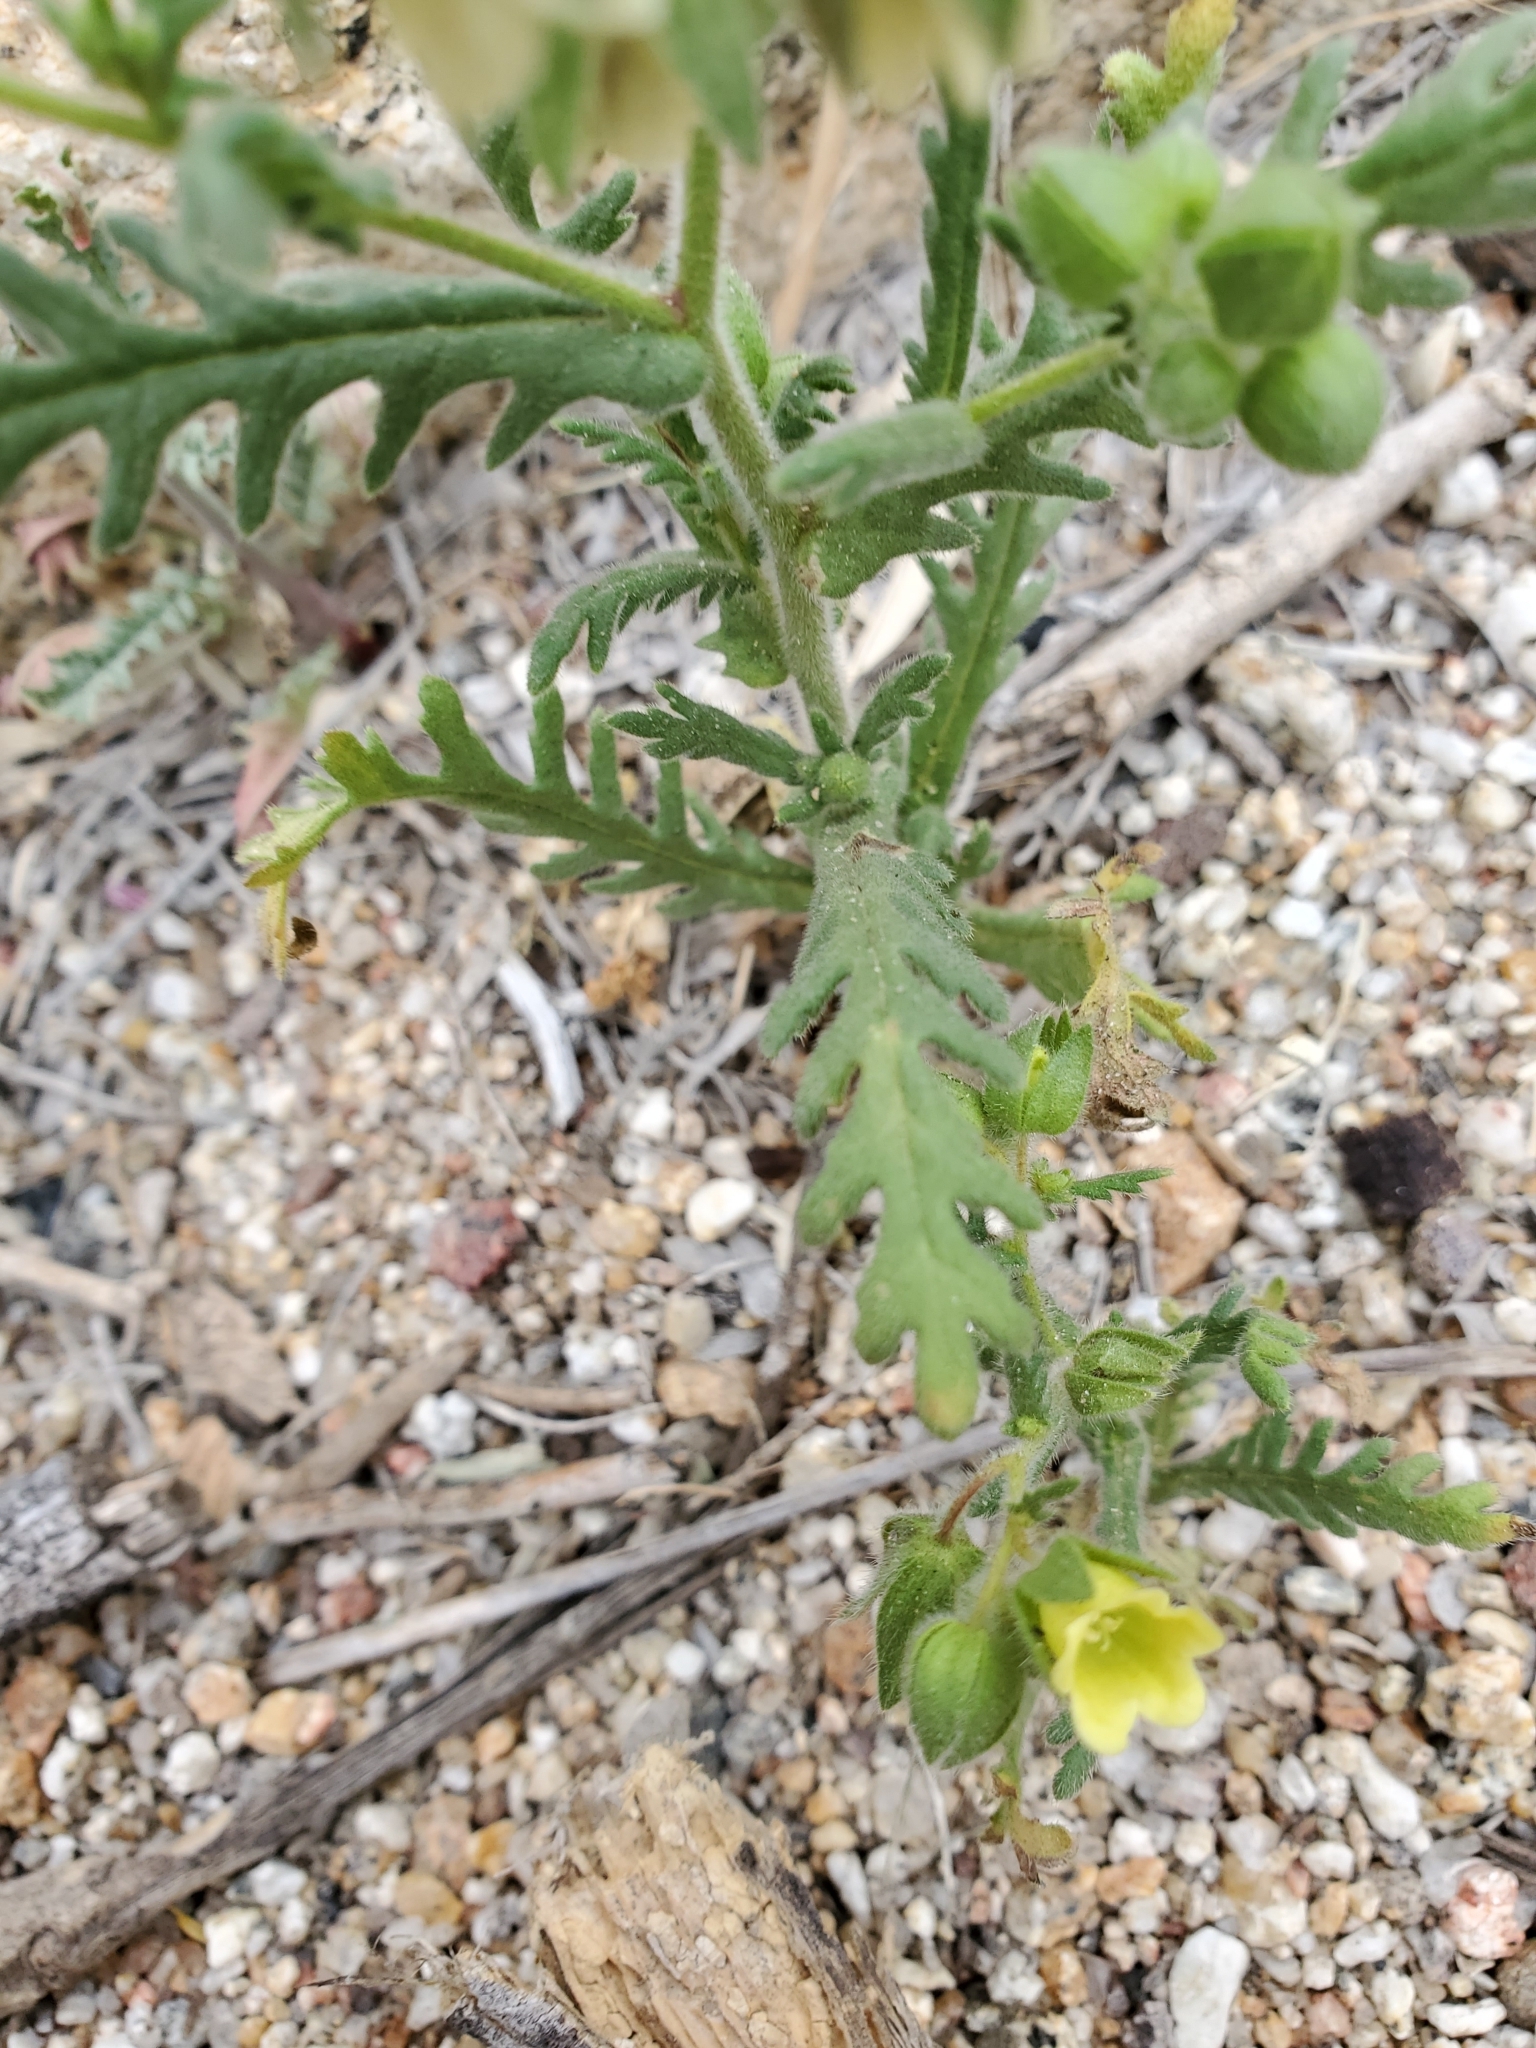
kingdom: Plantae
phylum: Tracheophyta
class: Magnoliopsida
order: Boraginales
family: Hydrophyllaceae
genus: Emmenanthe
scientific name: Emmenanthe penduliflora
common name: Whispering-bells
